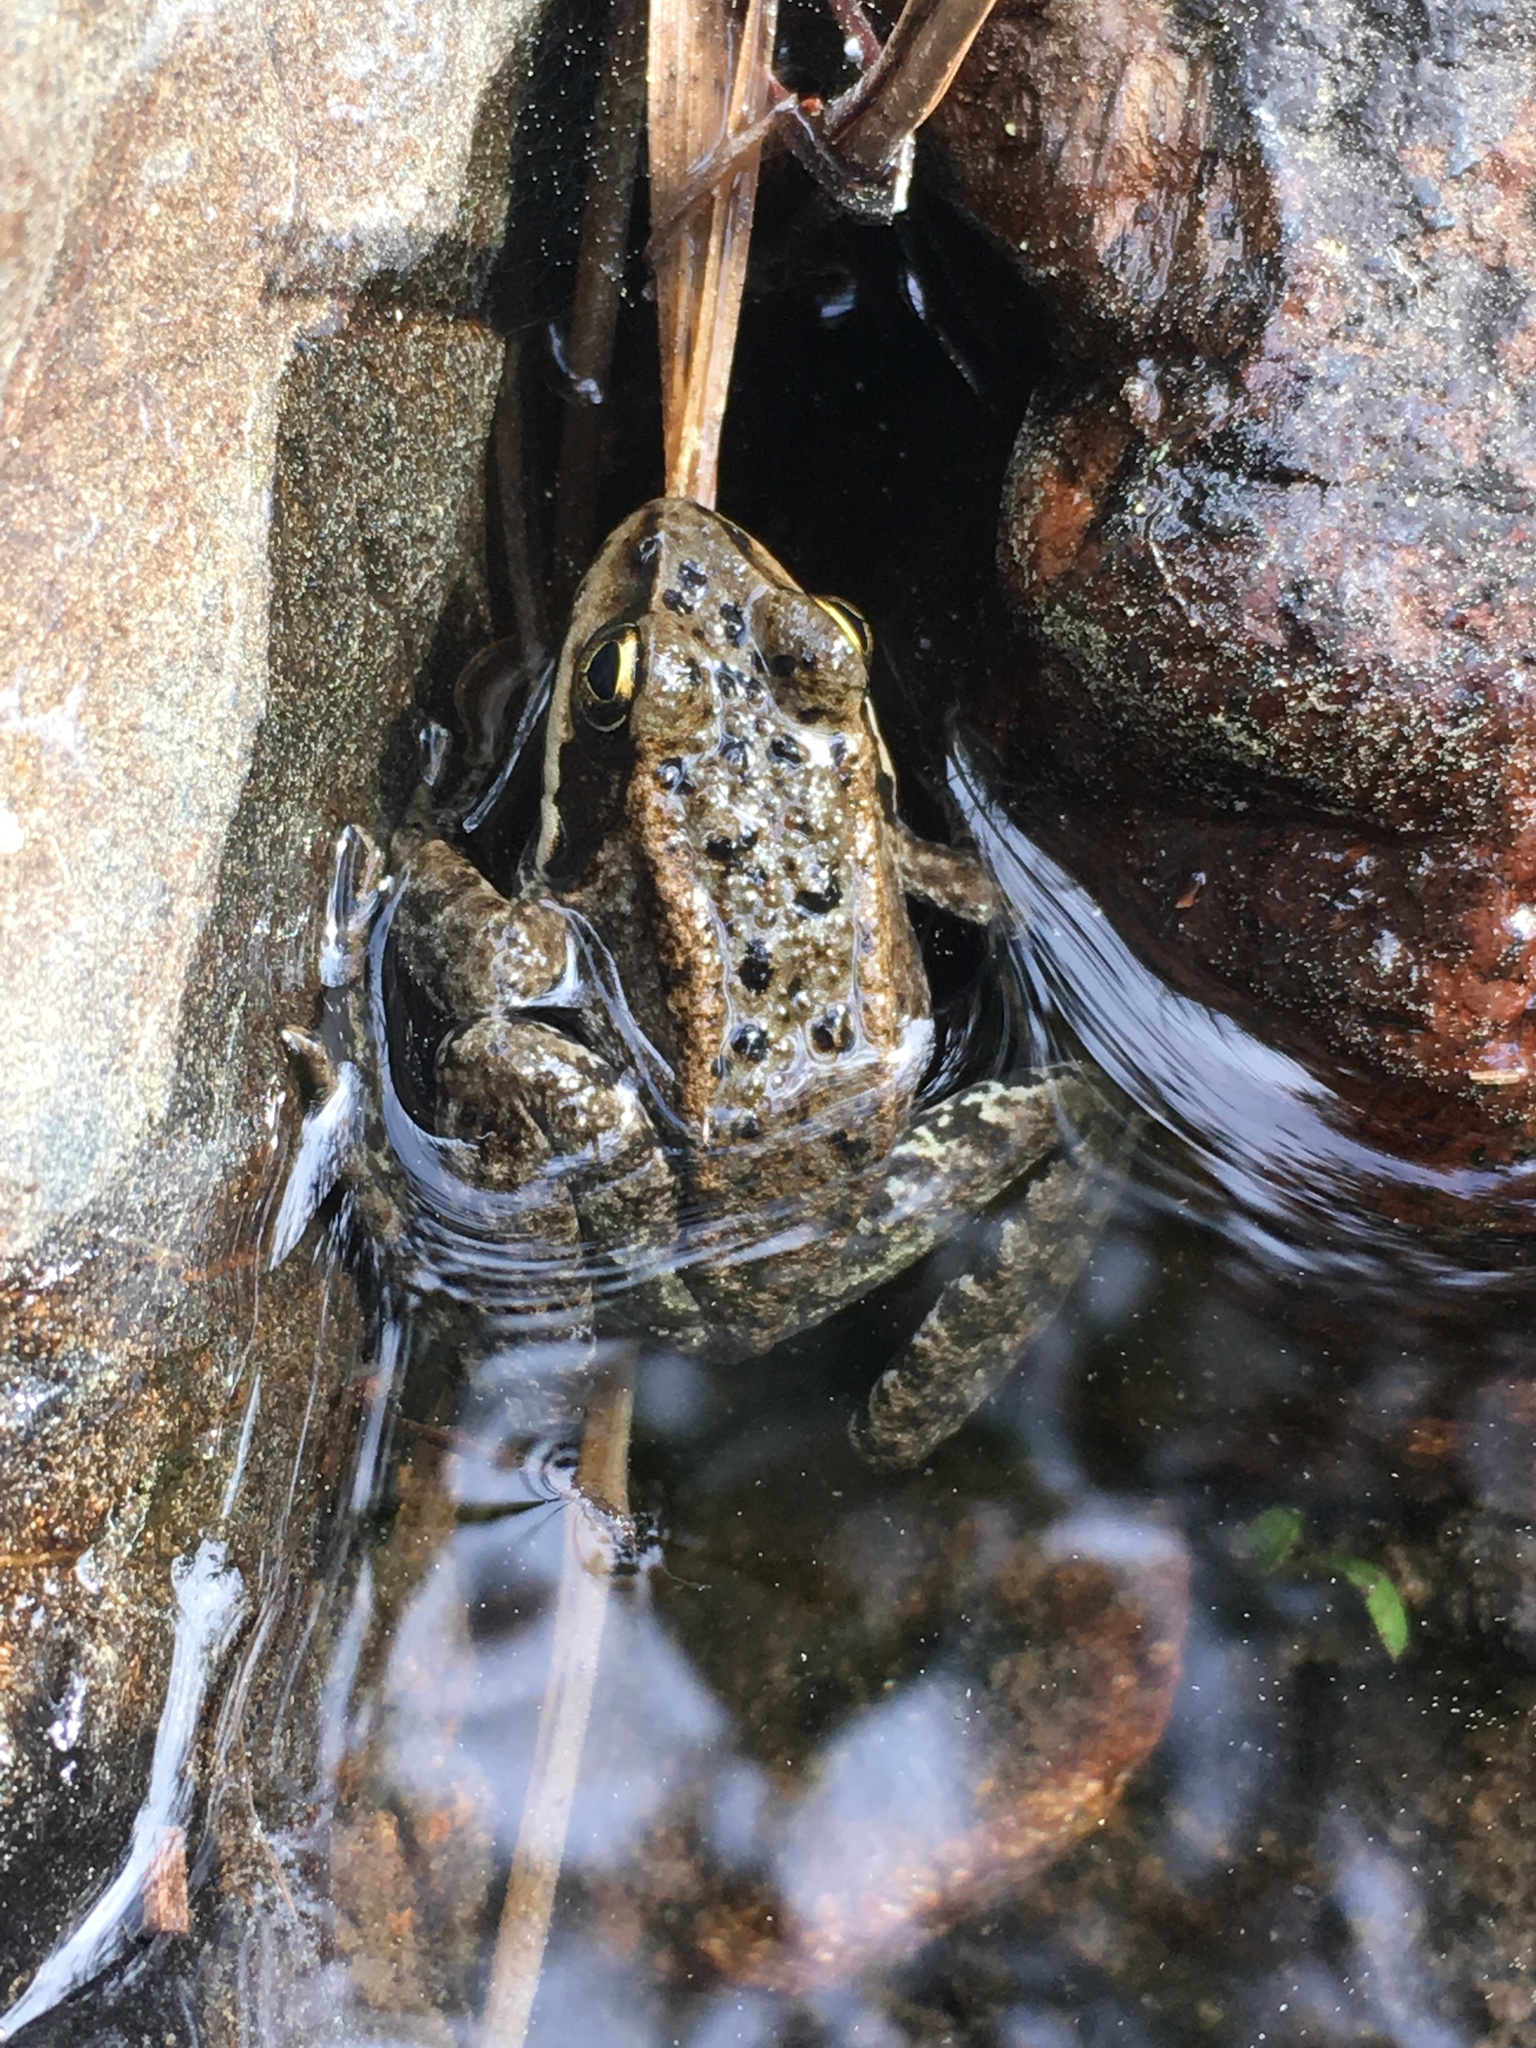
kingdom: Animalia
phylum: Chordata
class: Amphibia
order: Anura
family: Ranidae
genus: Rana
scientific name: Rana cascadae
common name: Cascades frog
